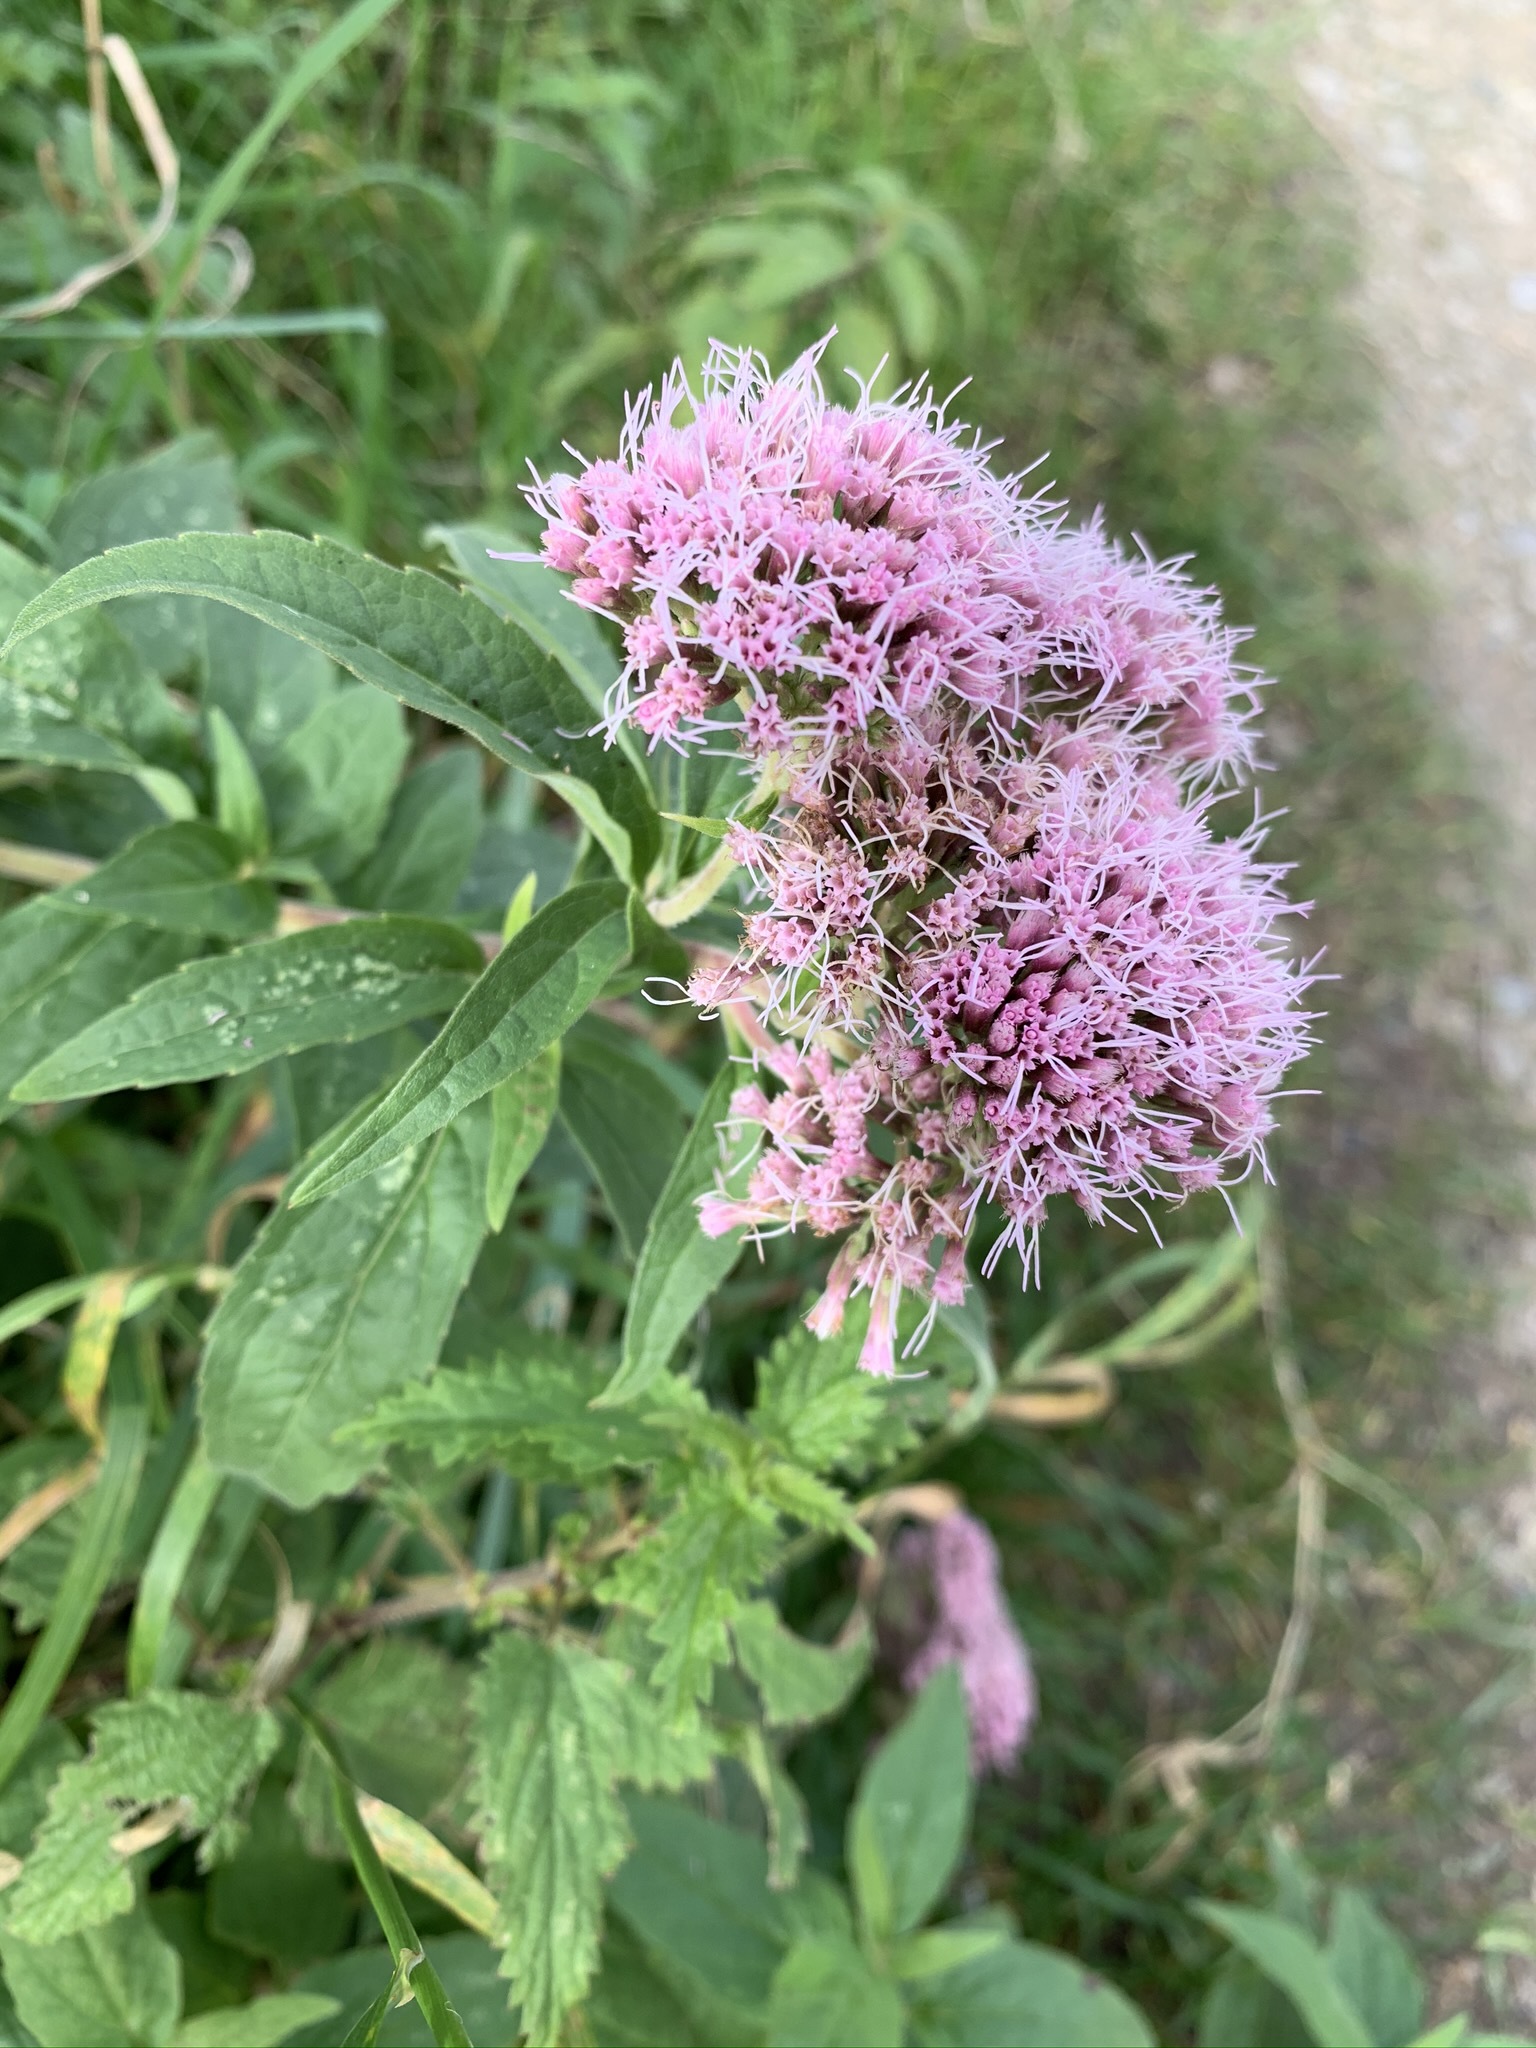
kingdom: Plantae
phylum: Tracheophyta
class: Magnoliopsida
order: Asterales
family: Asteraceae
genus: Eupatorium
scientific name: Eupatorium cannabinum
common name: Hemp-agrimony
